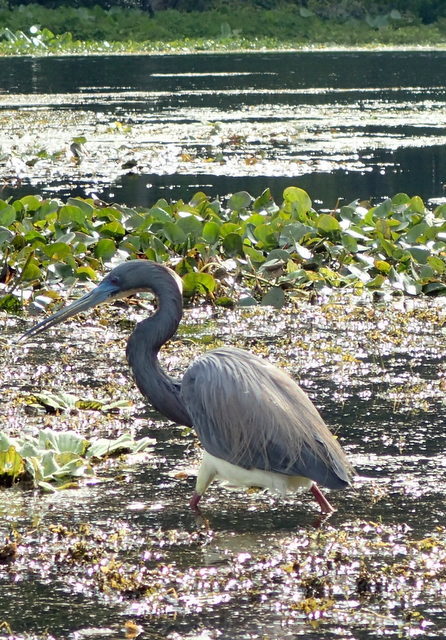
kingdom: Animalia
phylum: Chordata
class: Aves
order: Pelecaniformes
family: Ardeidae
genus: Egretta
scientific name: Egretta tricolor
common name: Tricolored heron
